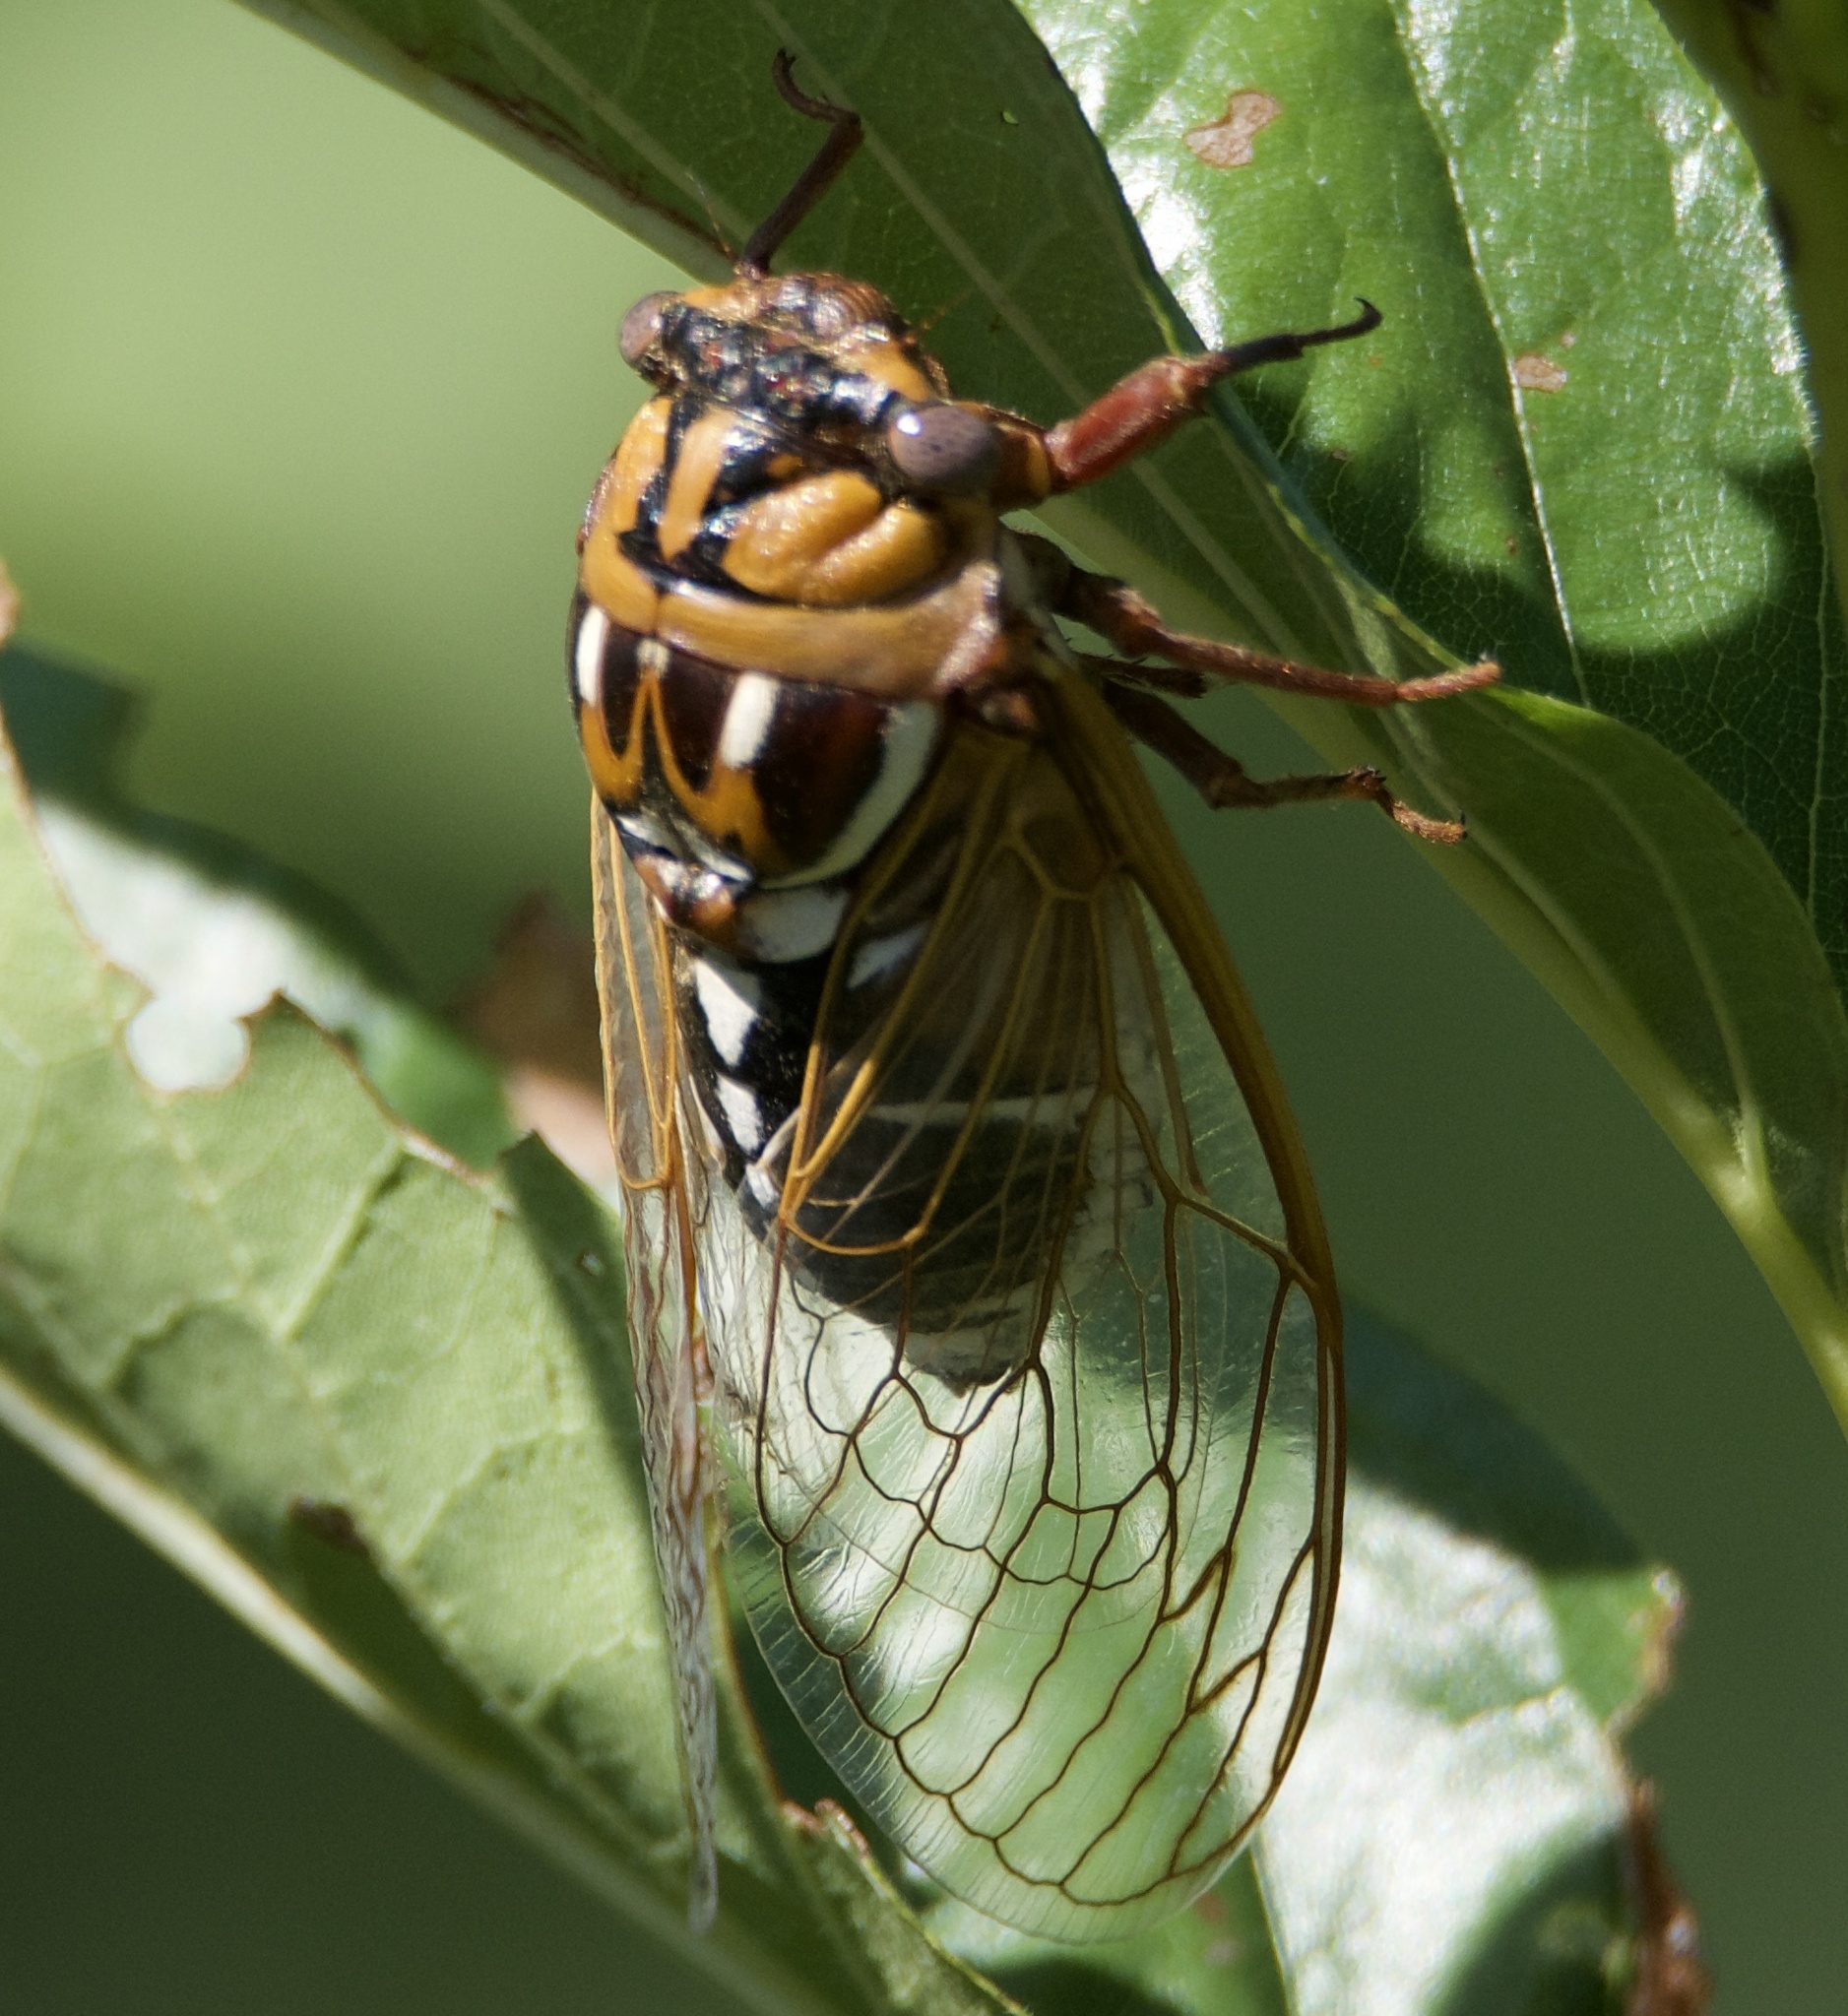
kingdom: Animalia
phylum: Arthropoda
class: Insecta
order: Hemiptera
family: Cicadidae
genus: Megatibicen
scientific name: Megatibicen dorsatus
